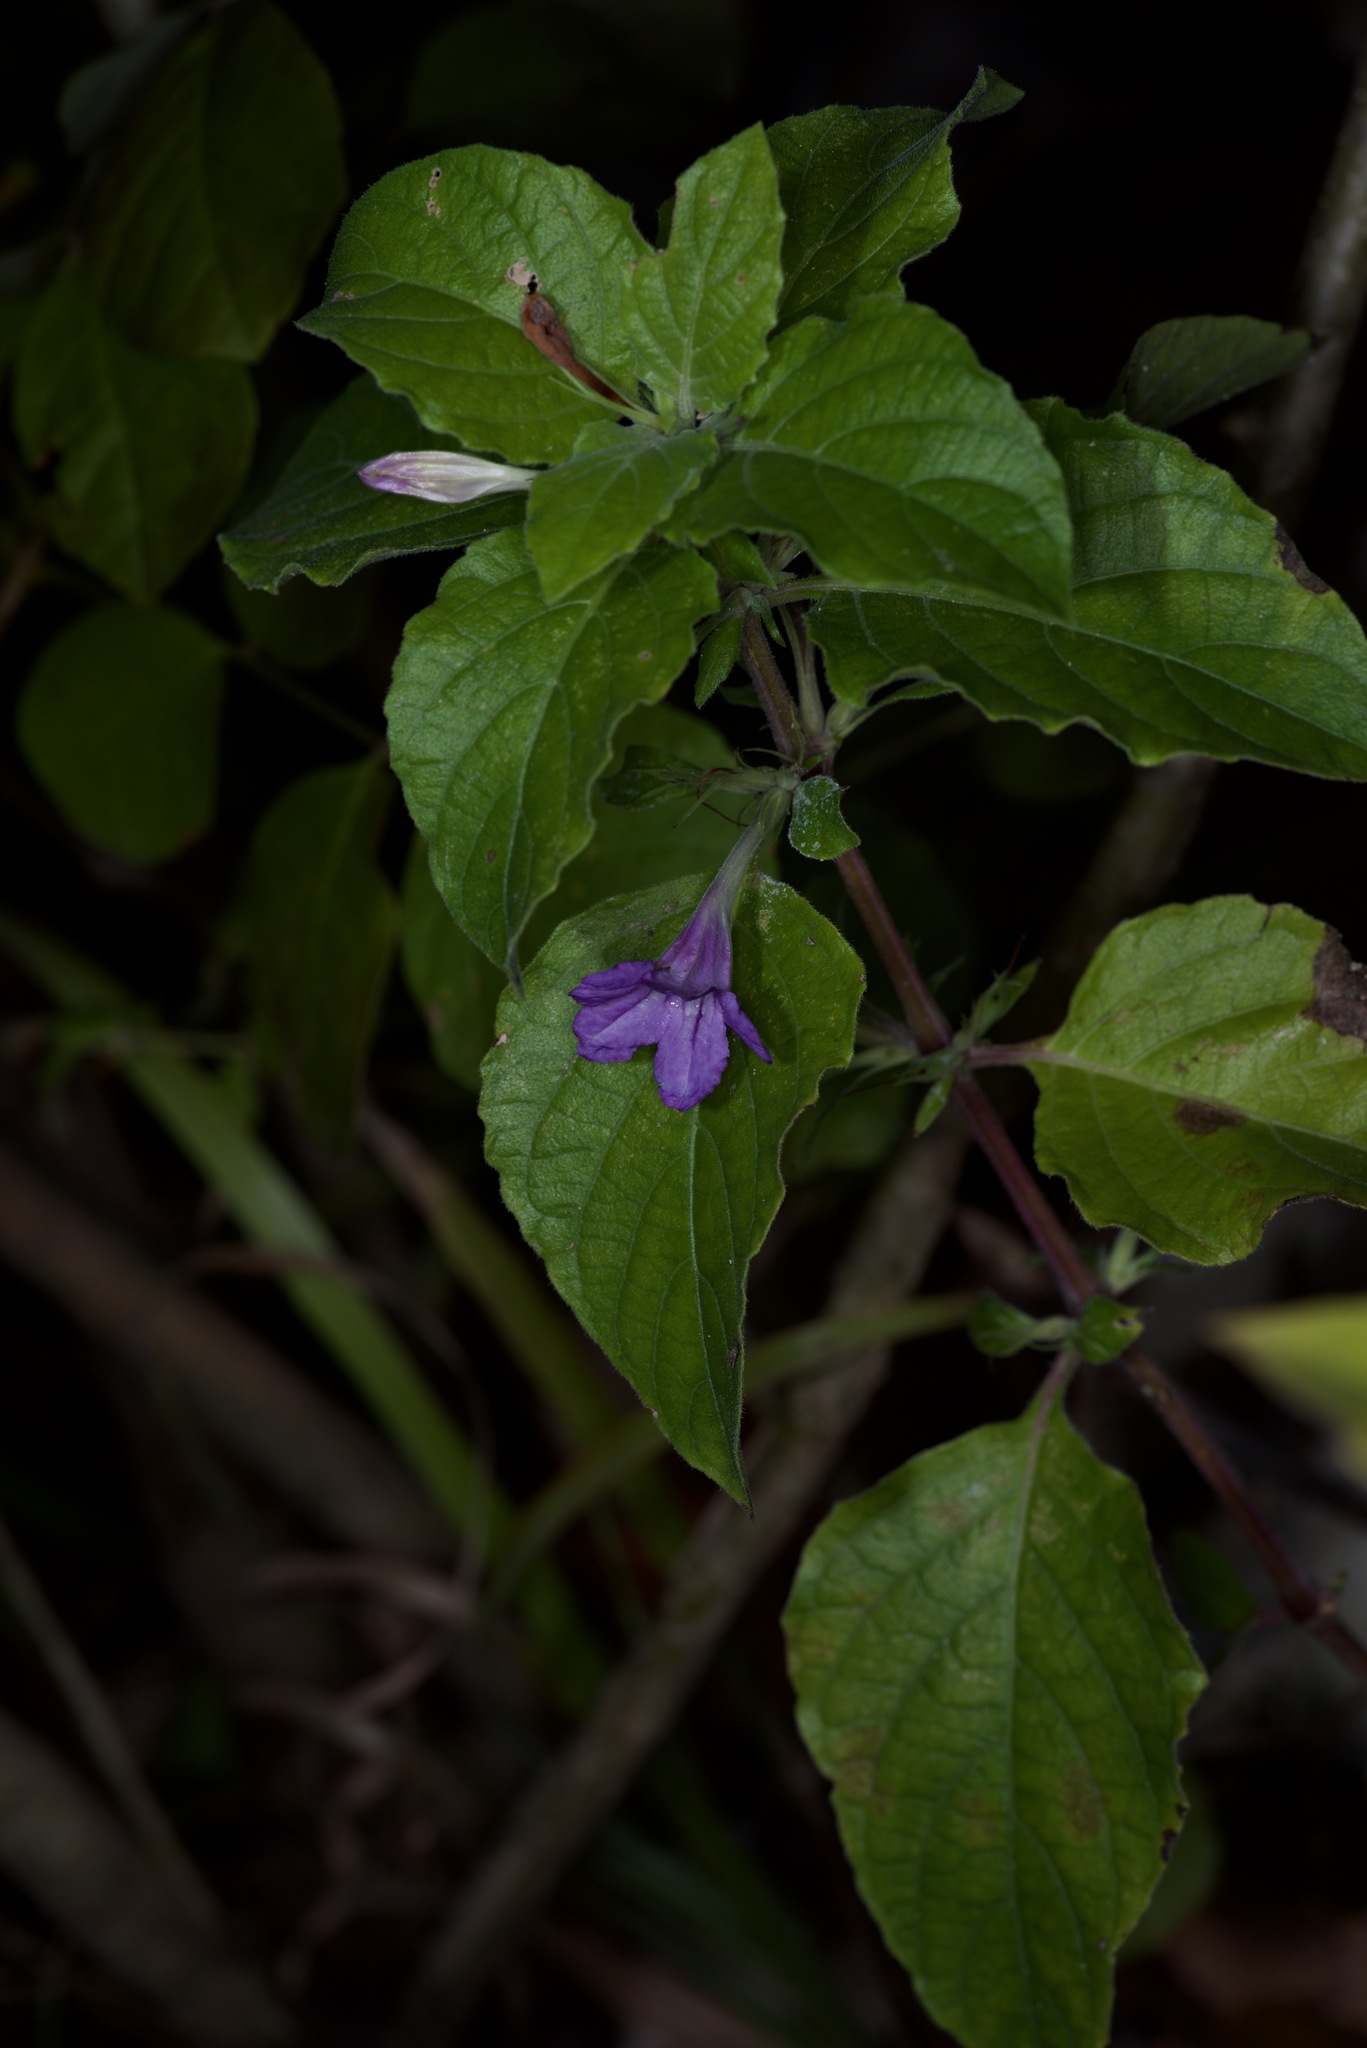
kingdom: Plantae
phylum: Tracheophyta
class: Magnoliopsida
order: Lamiales
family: Acanthaceae
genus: Ruellia
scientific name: Ruellia drummondiana
